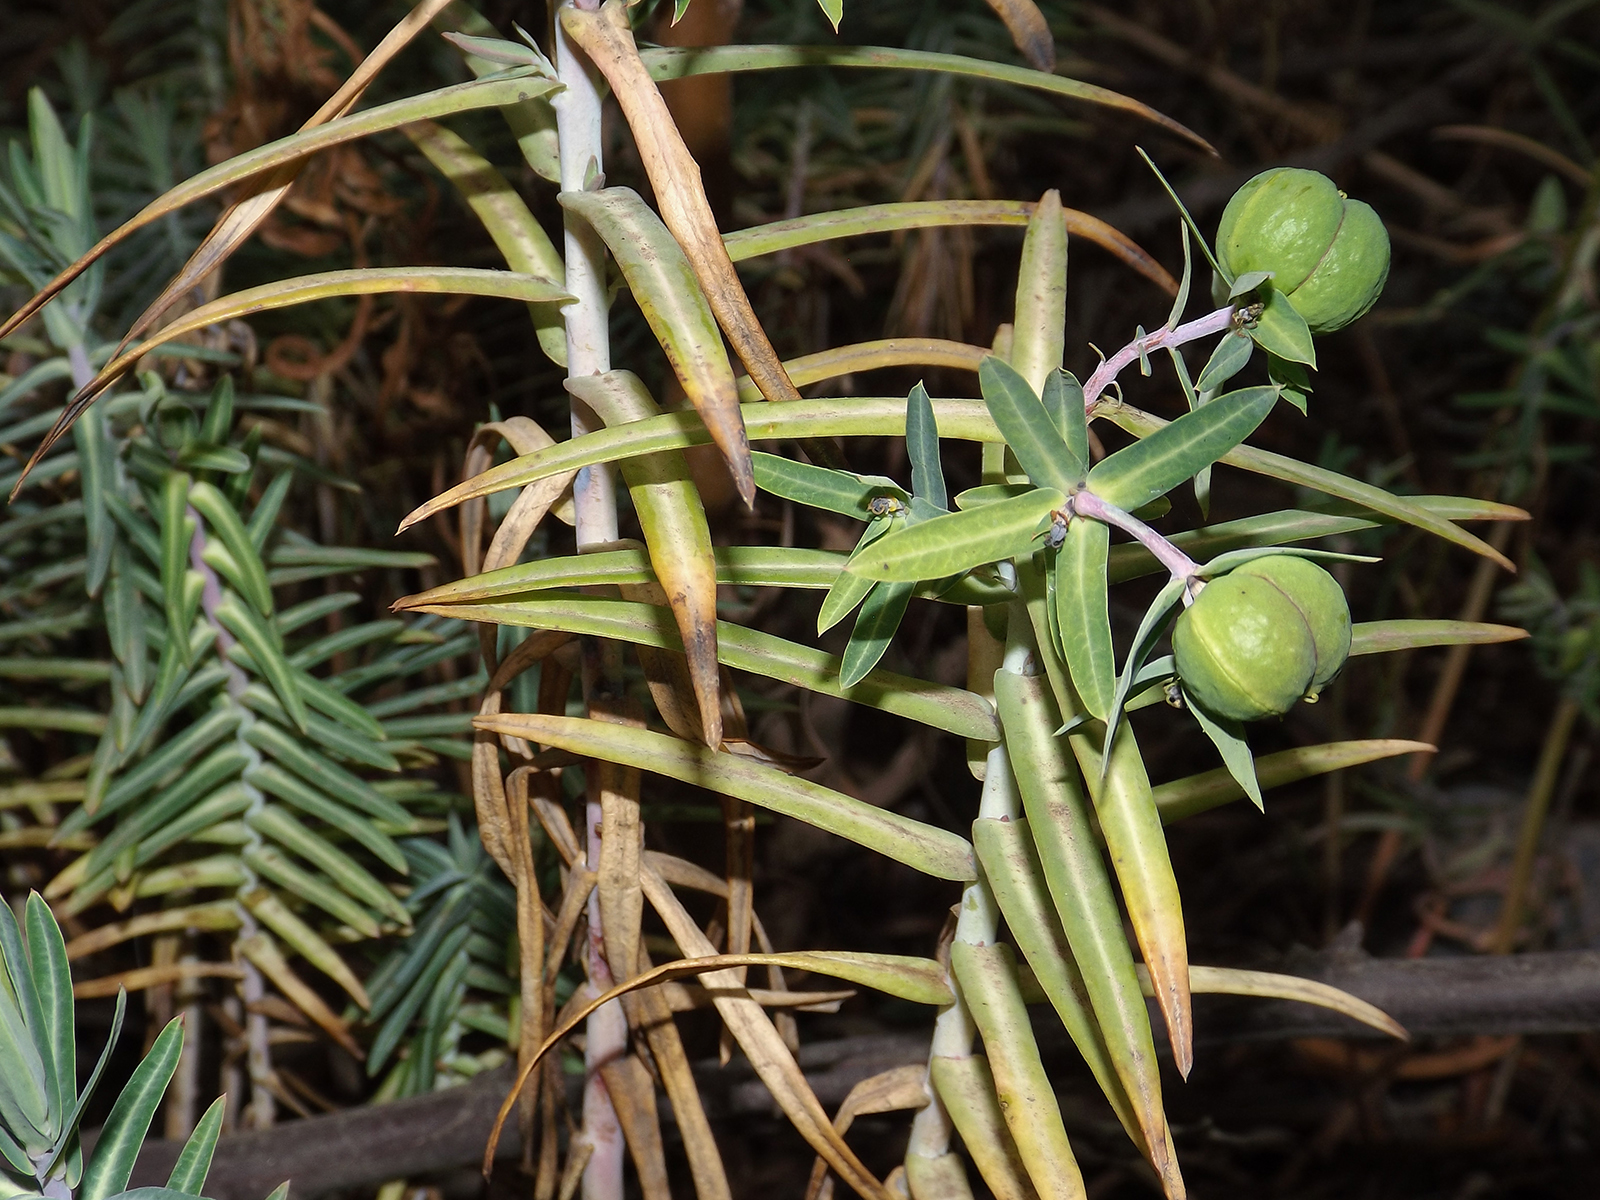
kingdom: Plantae
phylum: Tracheophyta
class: Magnoliopsida
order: Malpighiales
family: Euphorbiaceae
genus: Euphorbia
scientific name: Euphorbia lathyris
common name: Caper spurge
